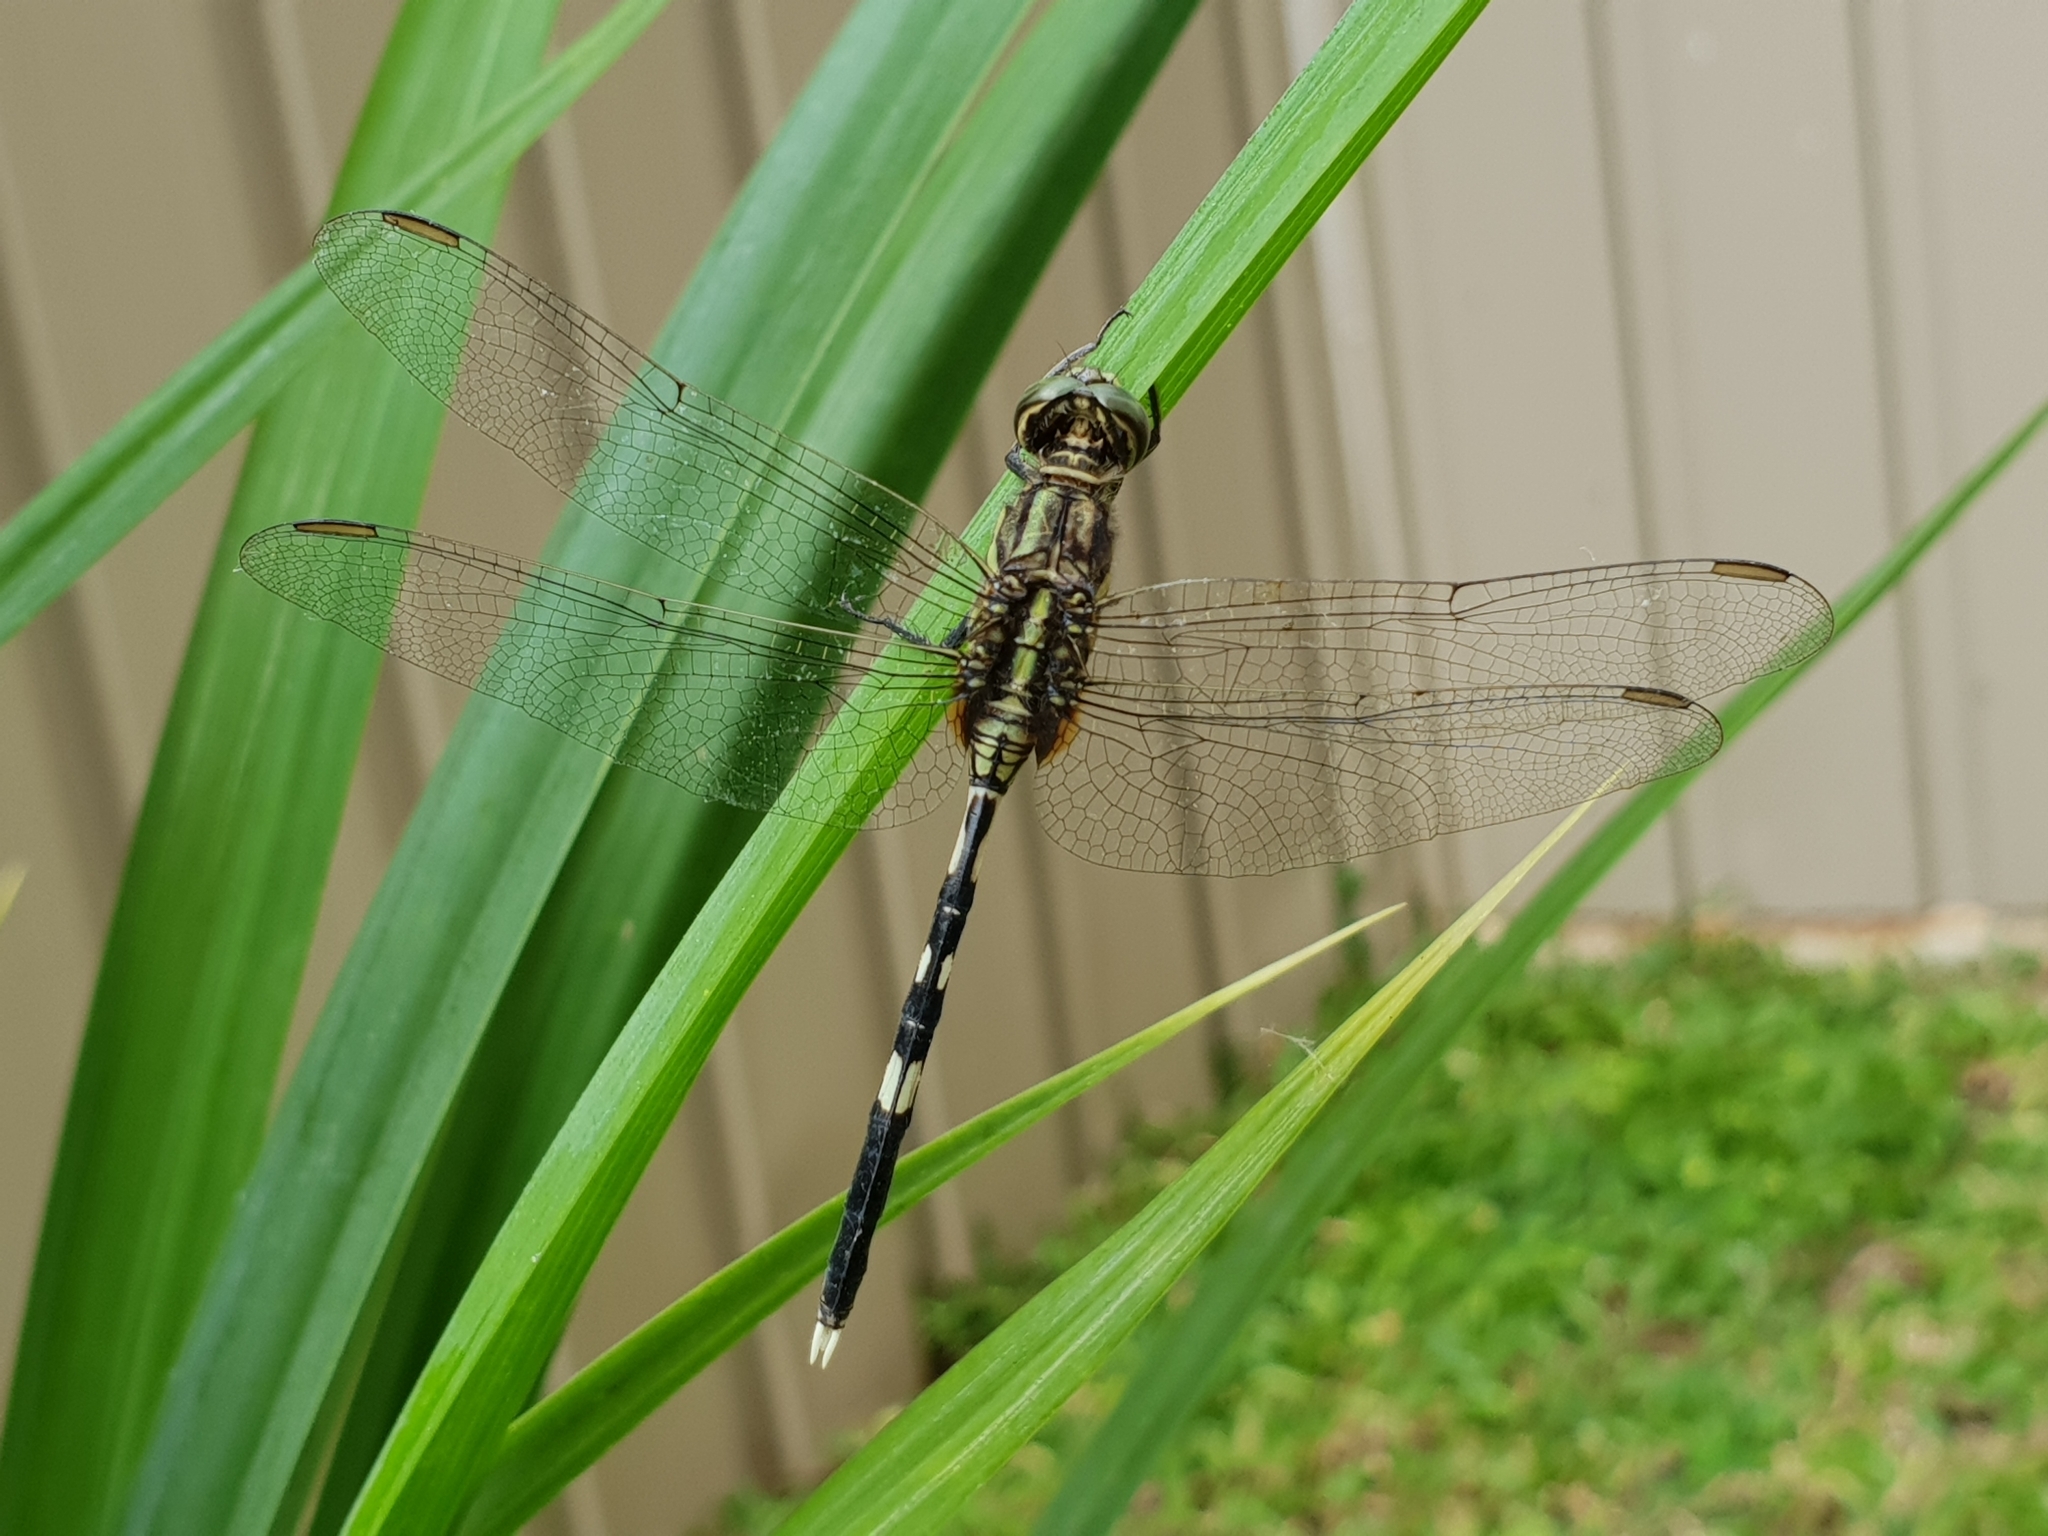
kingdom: Animalia
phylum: Arthropoda
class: Insecta
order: Odonata
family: Libellulidae
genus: Orthetrum
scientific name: Orthetrum sabina
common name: Slender skimmer
